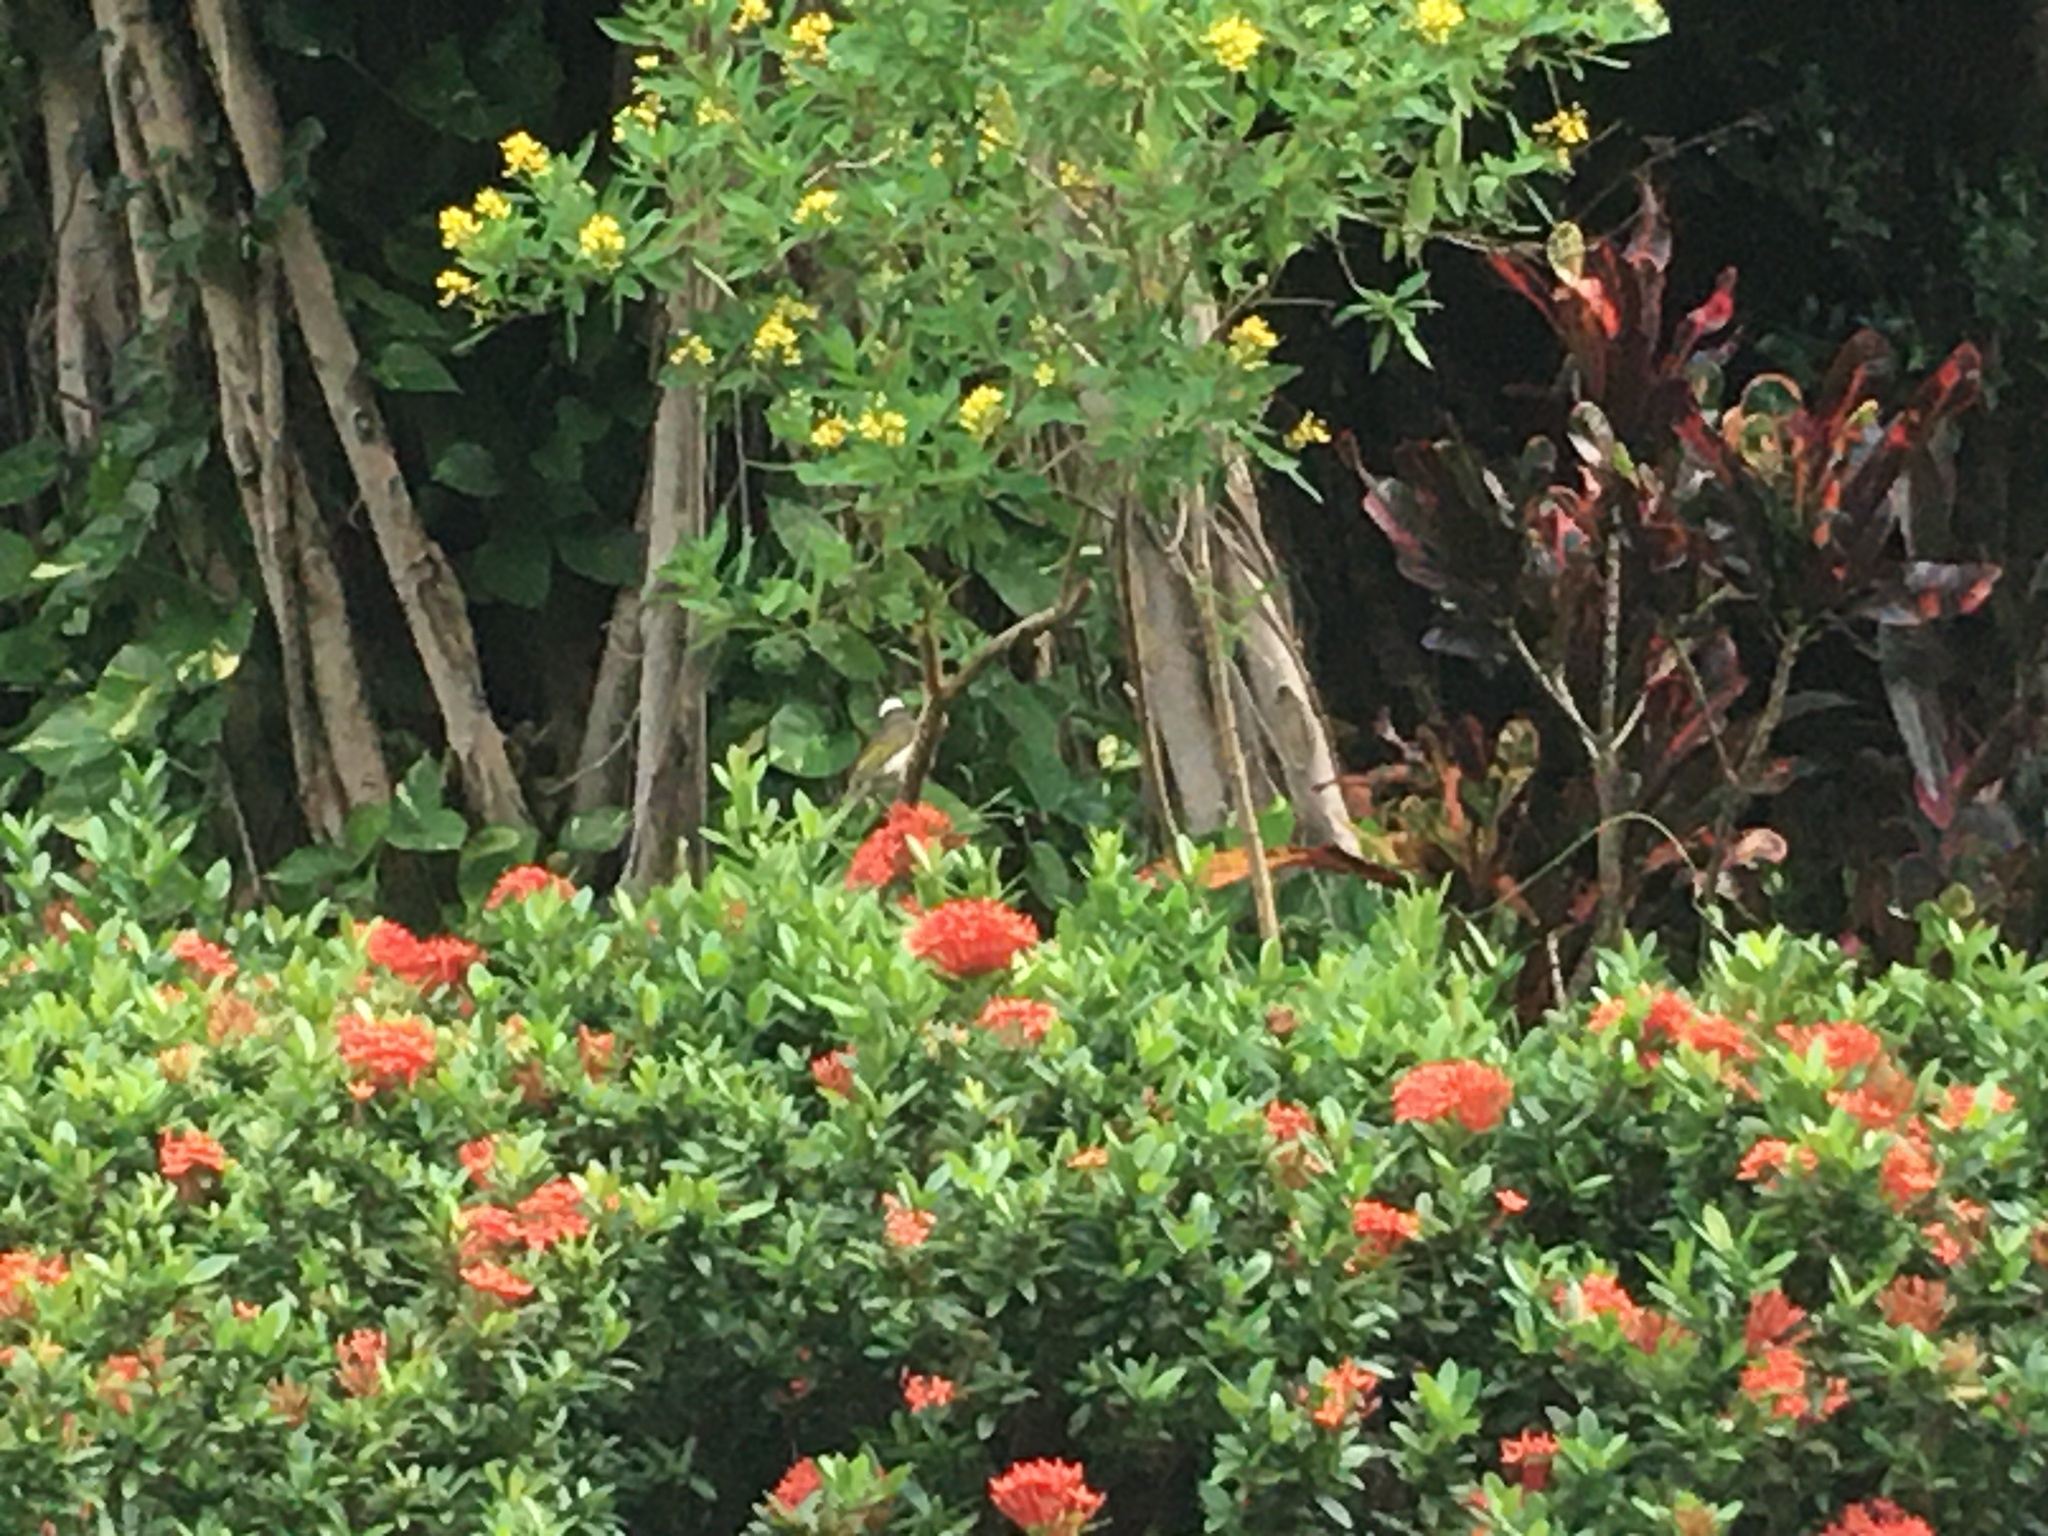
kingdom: Animalia
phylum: Chordata
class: Aves
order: Passeriformes
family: Pycnonotidae
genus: Pycnonotus
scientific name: Pycnonotus sinensis
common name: Light-vented bulbul
